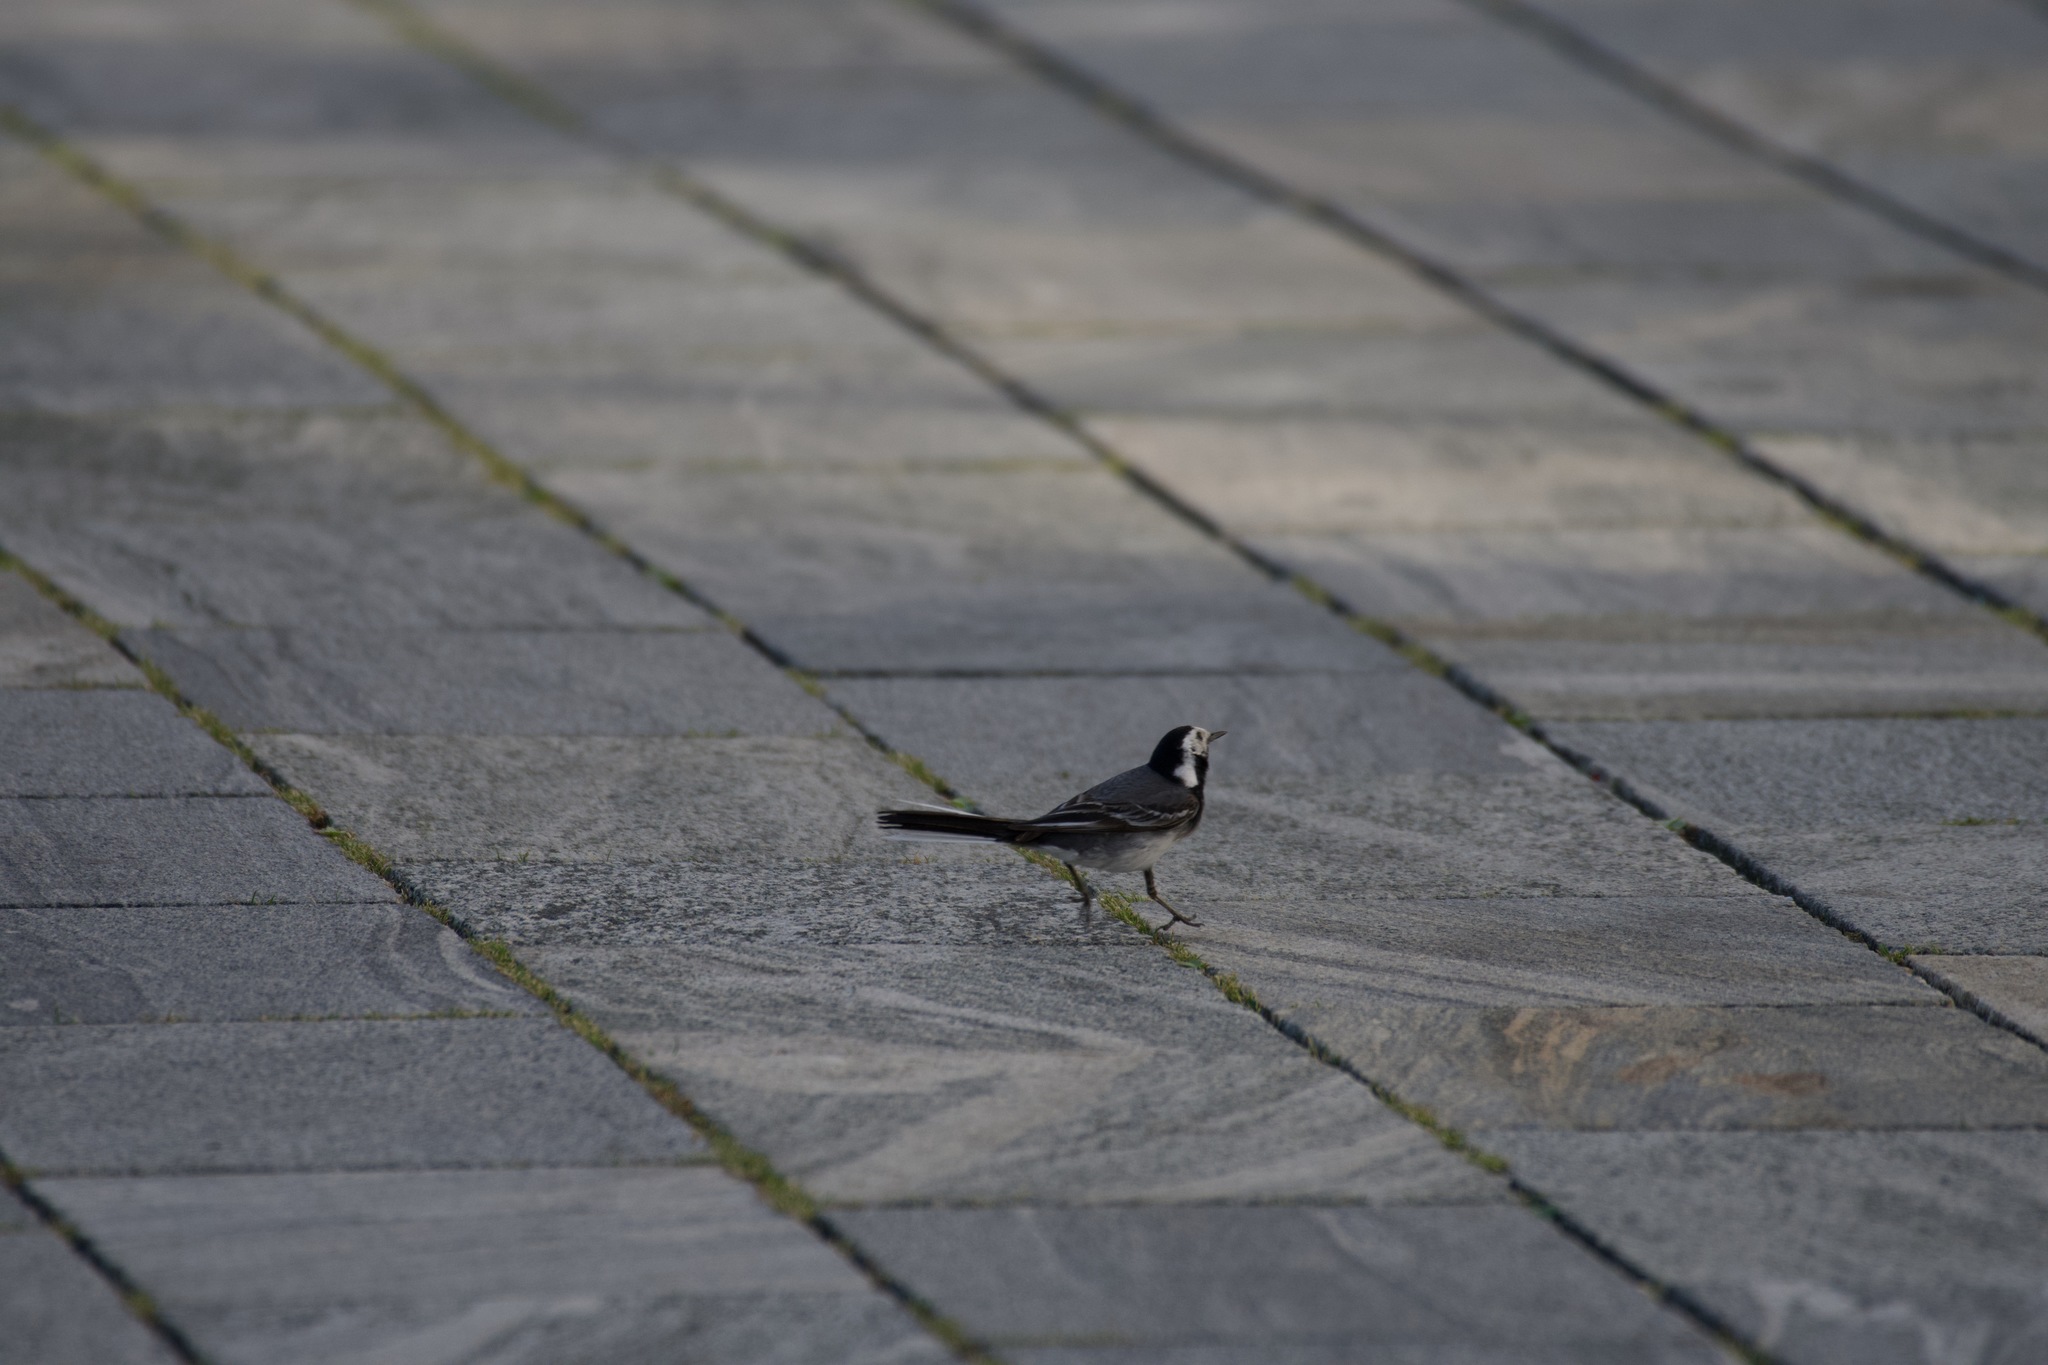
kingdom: Animalia
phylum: Chordata
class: Aves
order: Passeriformes
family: Motacillidae
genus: Motacilla
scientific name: Motacilla alba
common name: White wagtail
